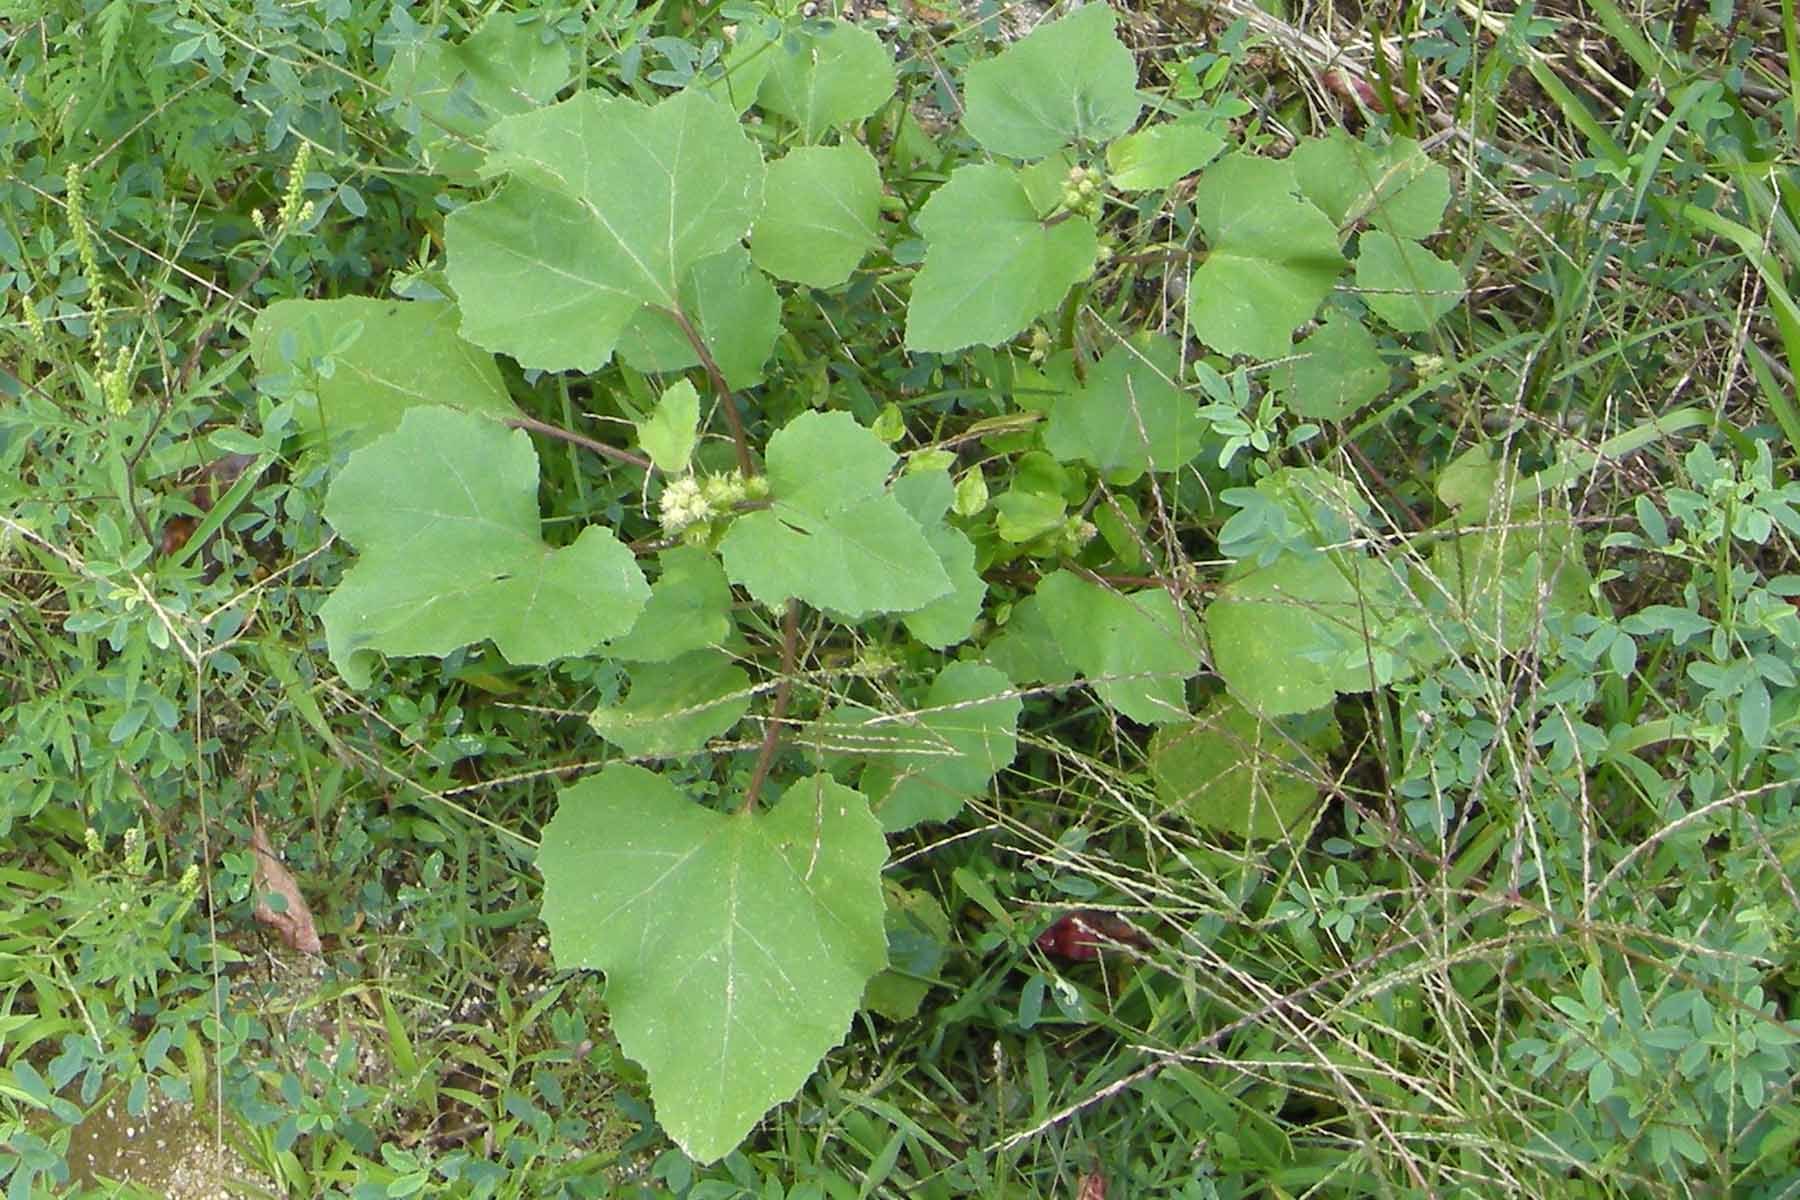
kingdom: Plantae
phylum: Tracheophyta
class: Magnoliopsida
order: Asterales
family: Asteraceae
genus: Xanthium
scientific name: Xanthium strumarium
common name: Rough cocklebur
